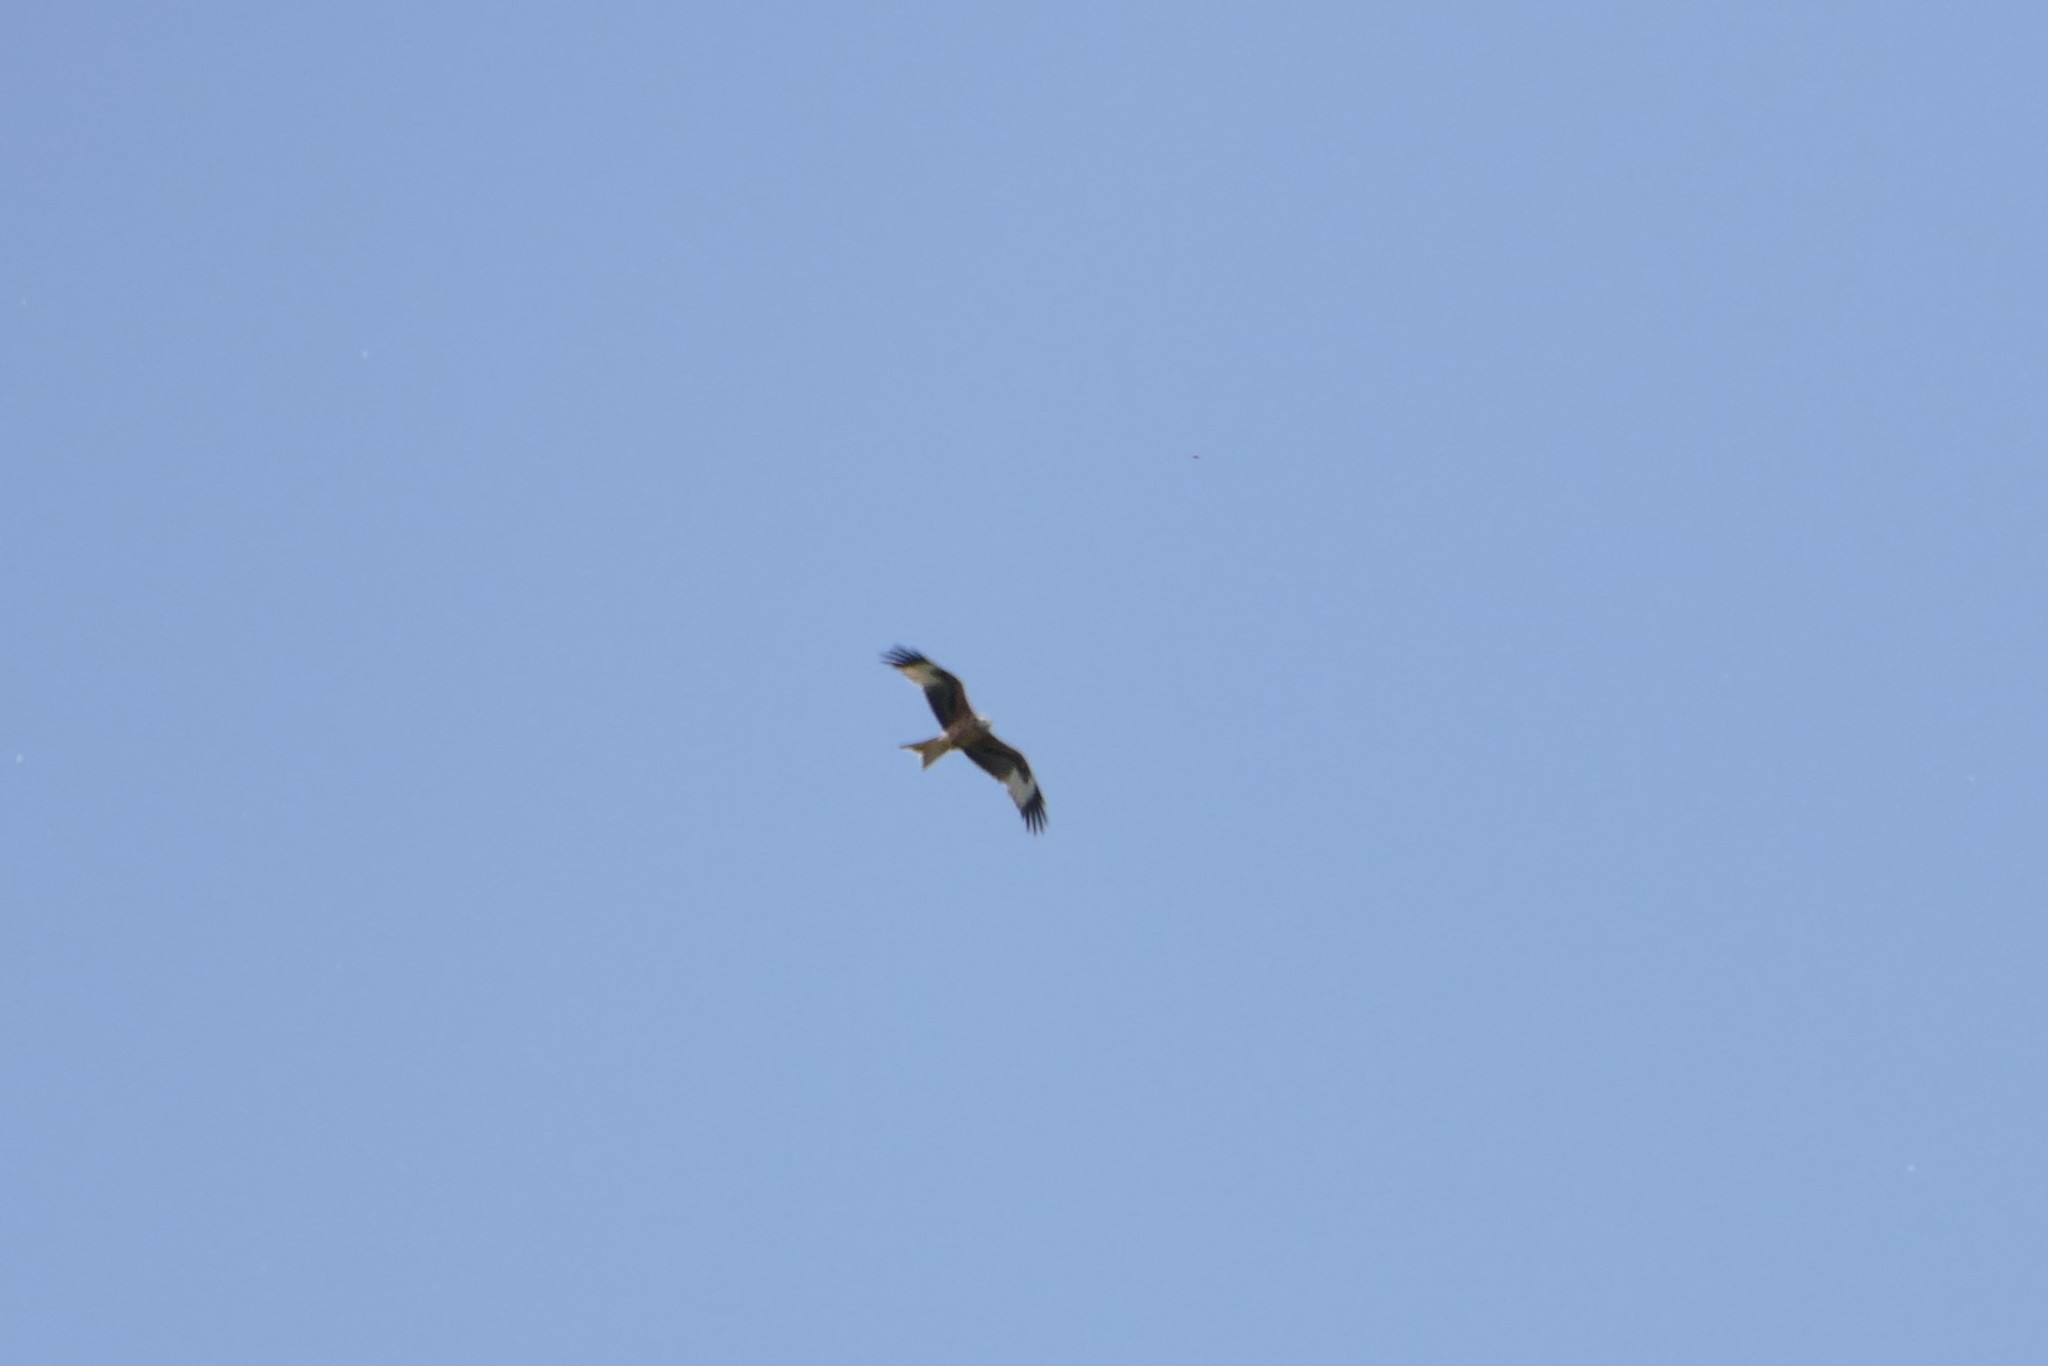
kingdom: Animalia
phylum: Chordata
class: Aves
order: Accipitriformes
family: Accipitridae
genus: Milvus
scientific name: Milvus milvus
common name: Red kite
